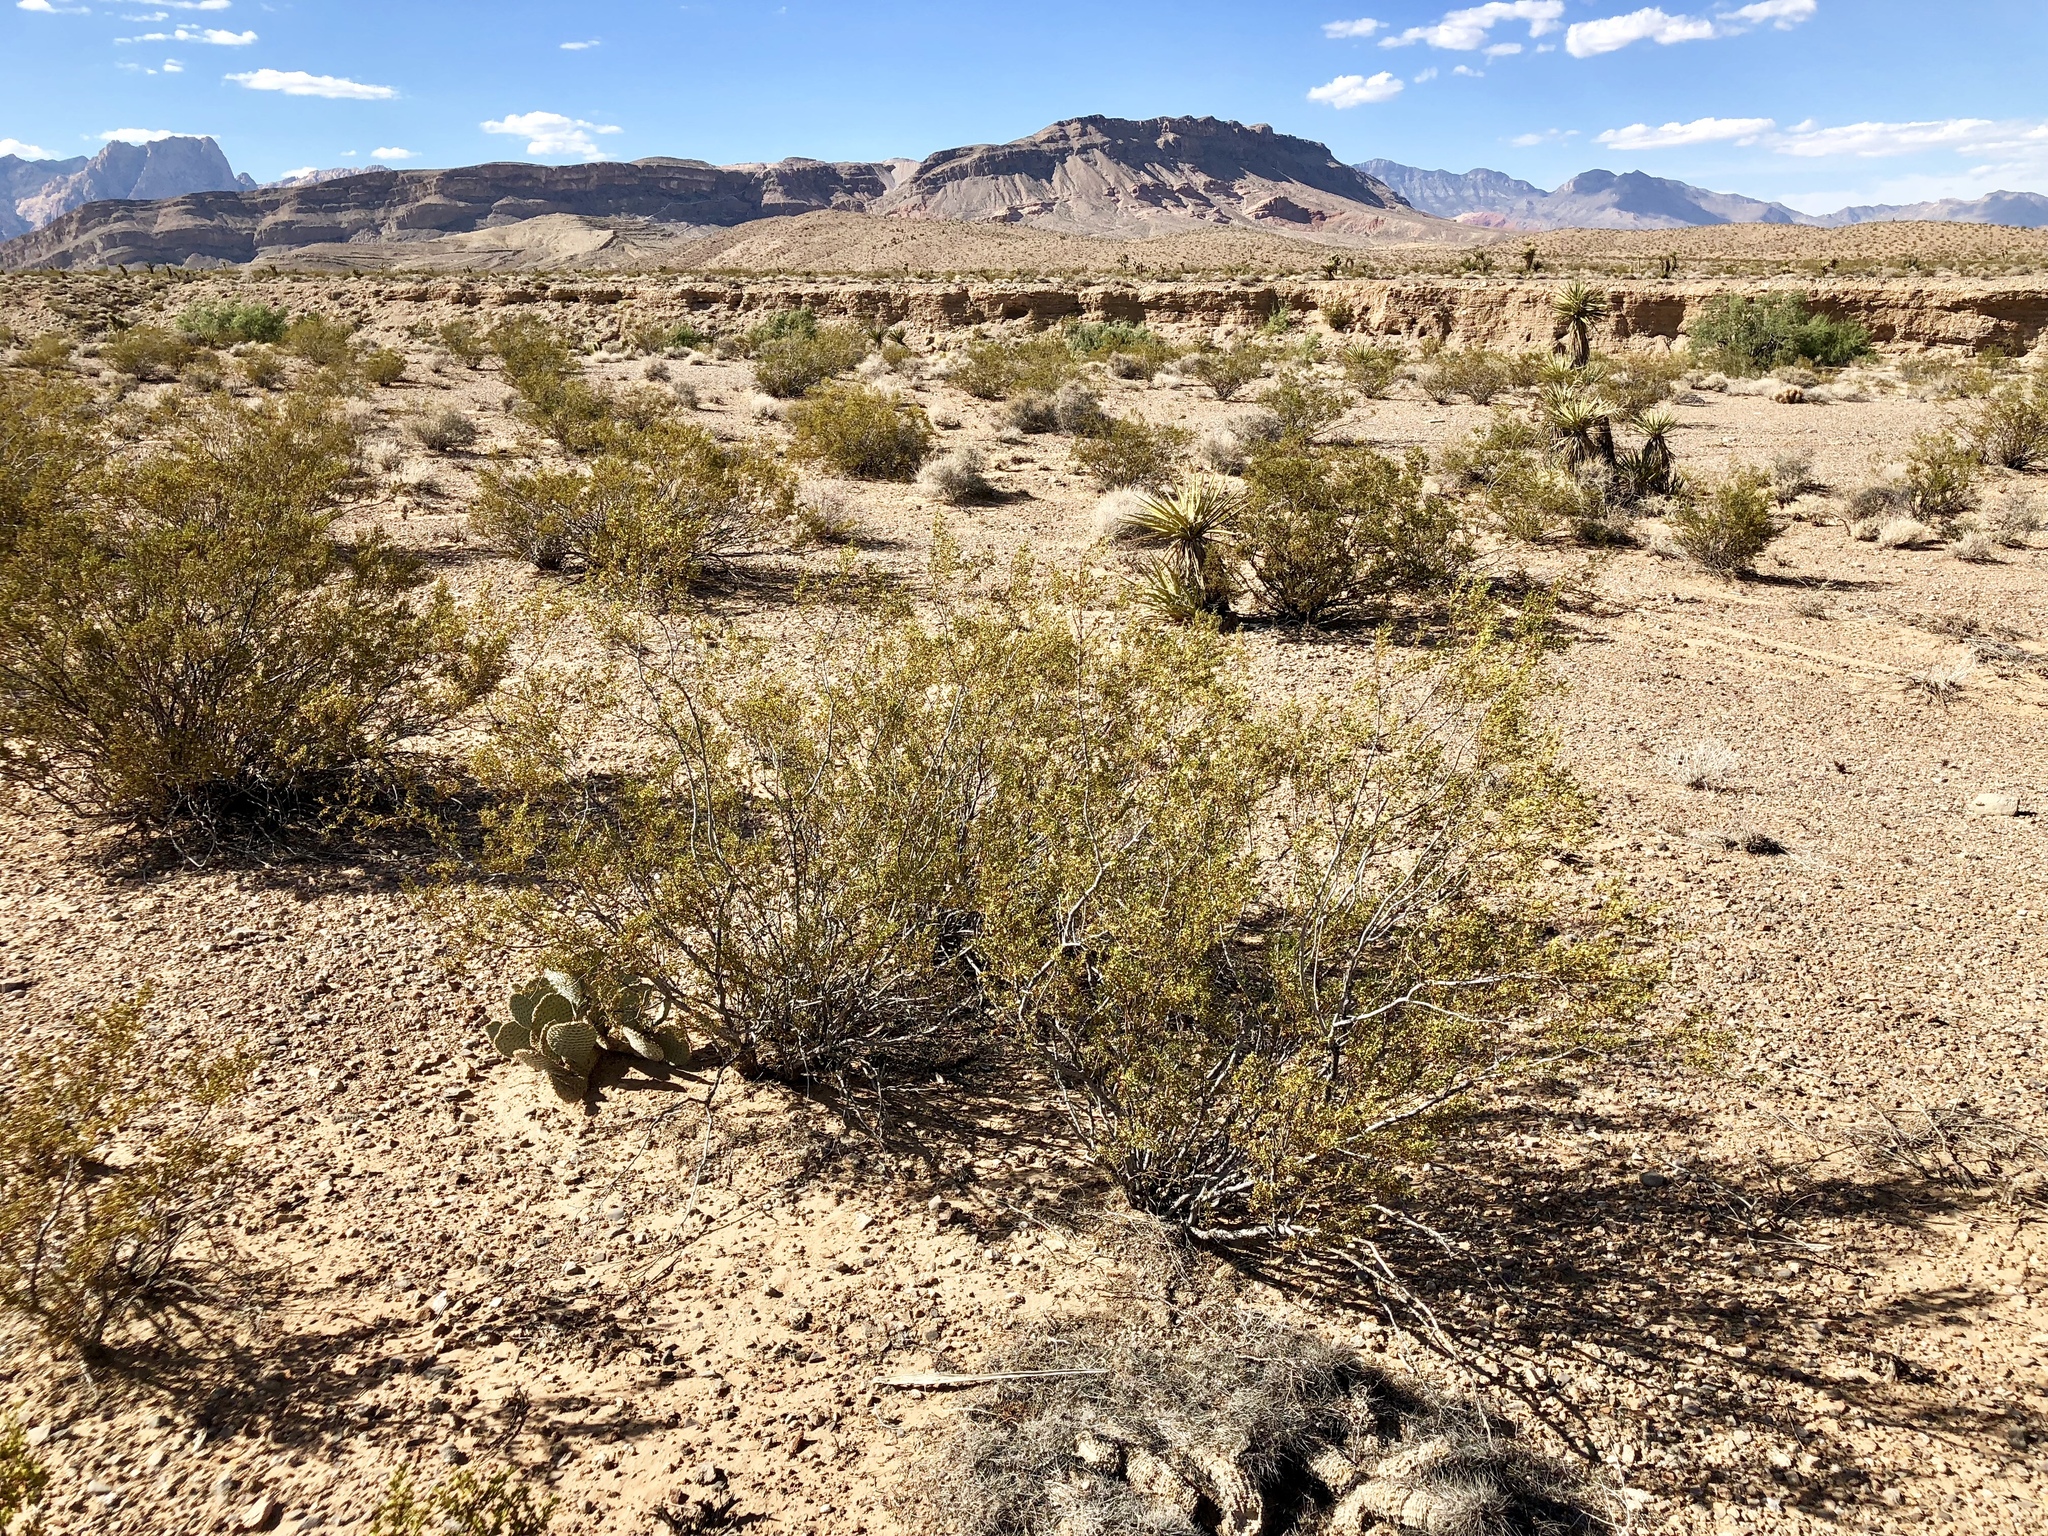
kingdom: Plantae
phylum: Tracheophyta
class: Magnoliopsida
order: Zygophyllales
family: Zygophyllaceae
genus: Larrea
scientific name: Larrea tridentata
